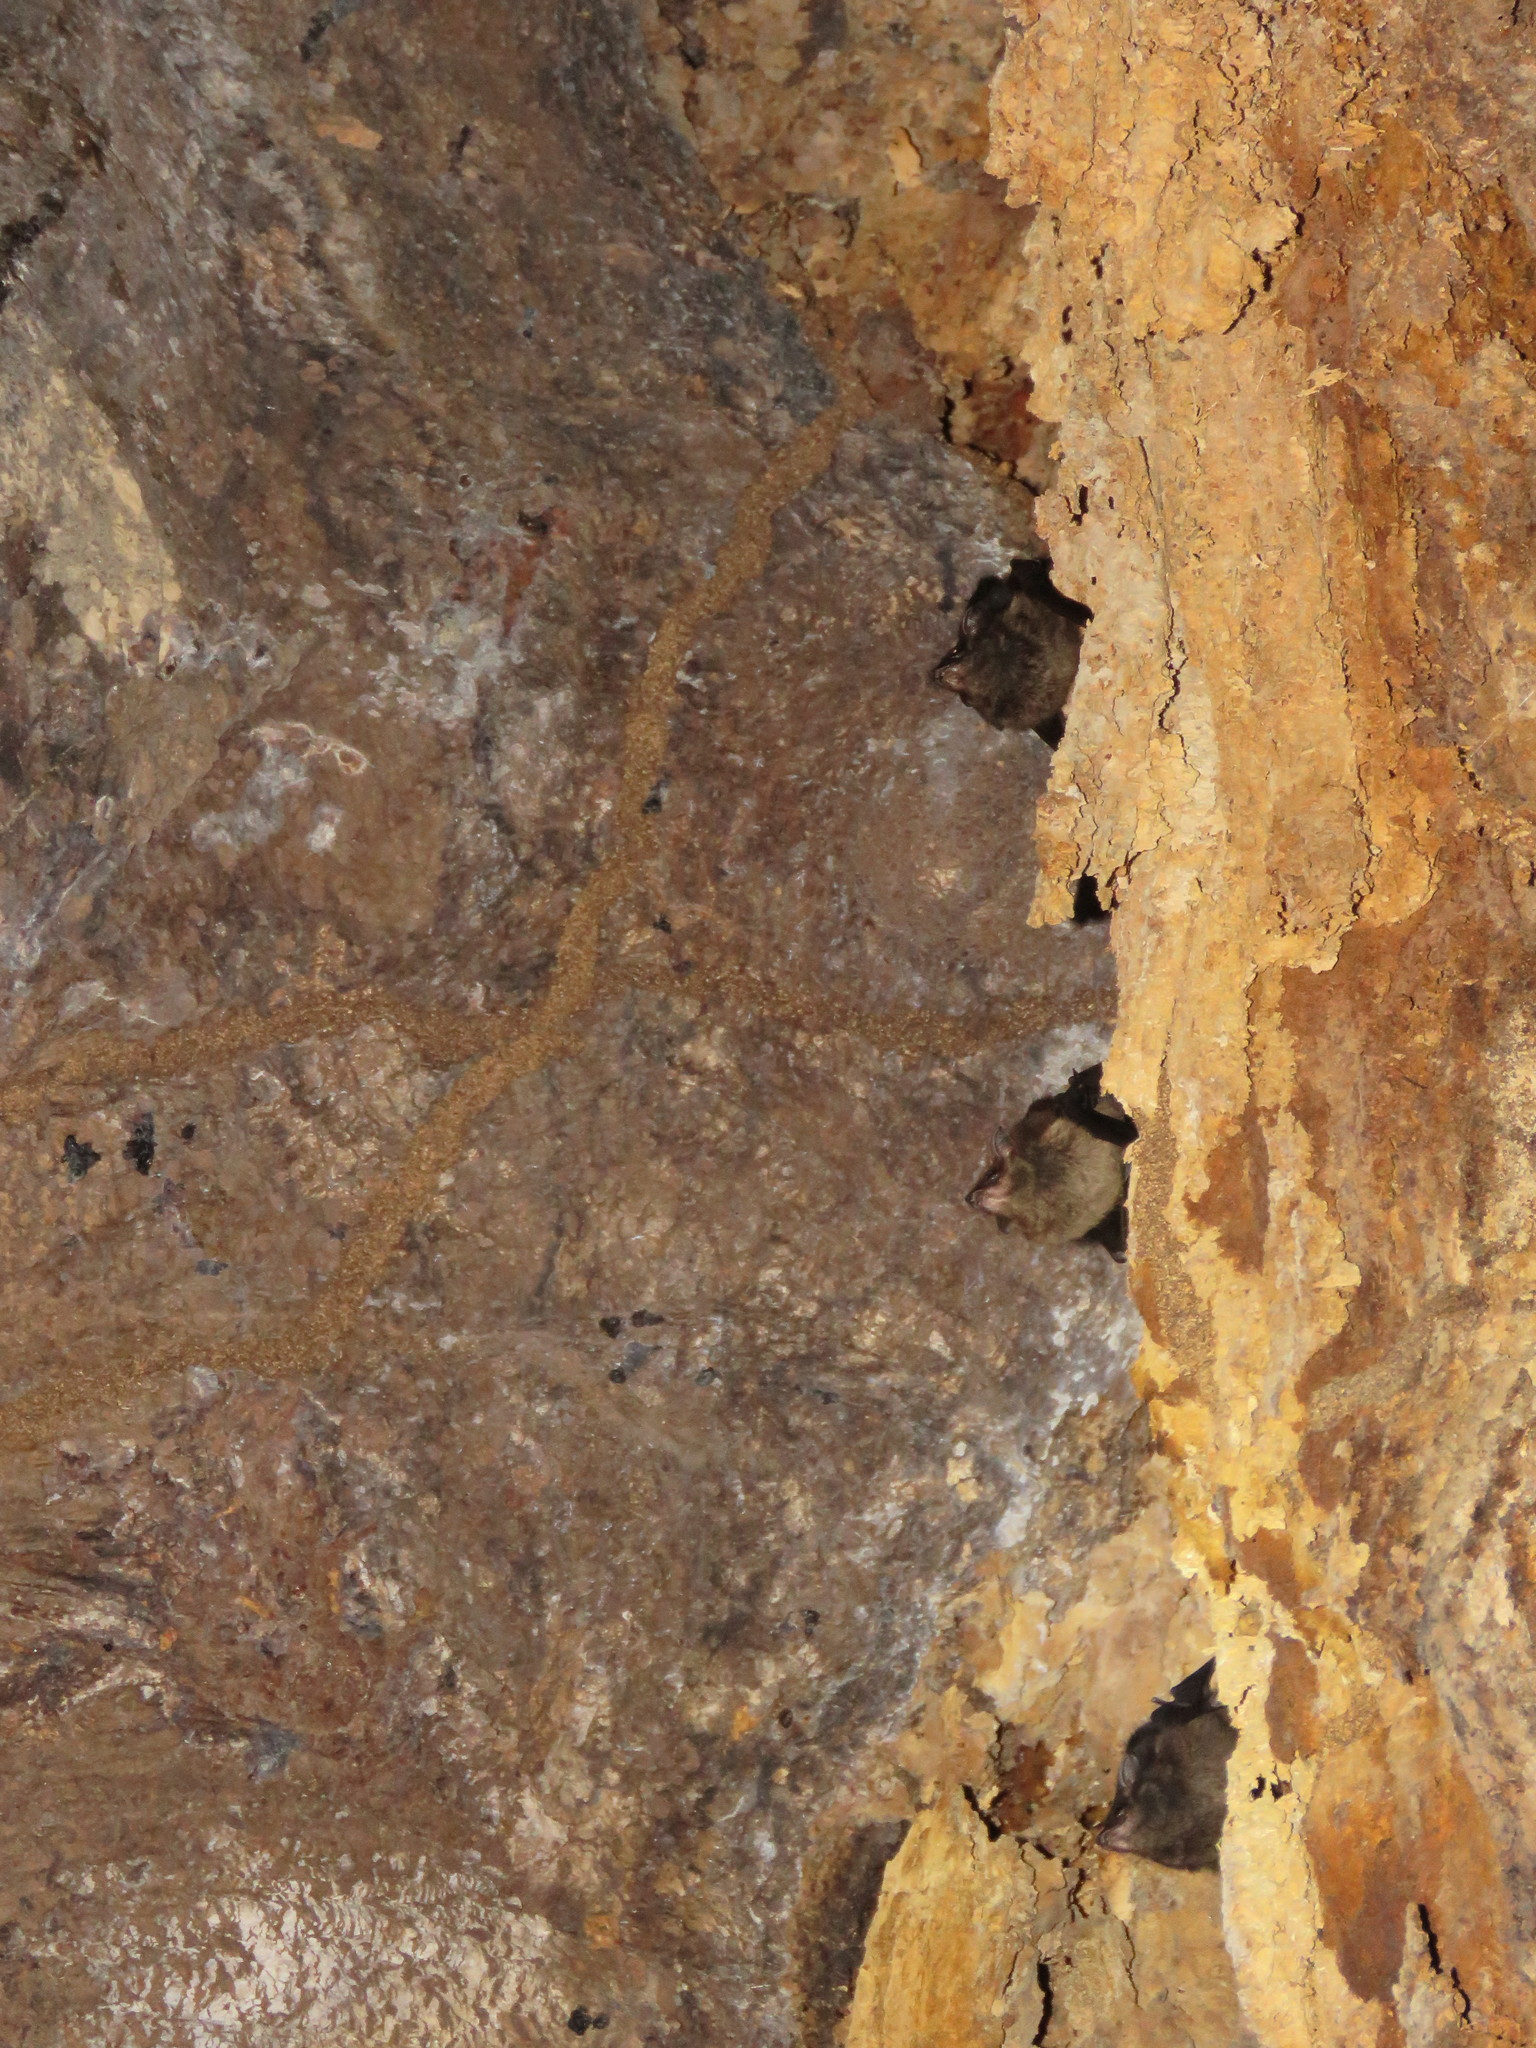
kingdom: Animalia
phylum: Chordata
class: Mammalia
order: Chiroptera
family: Emballonuridae
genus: Saccopteryx
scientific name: Saccopteryx bilineata
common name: Greater sac-winged bat
